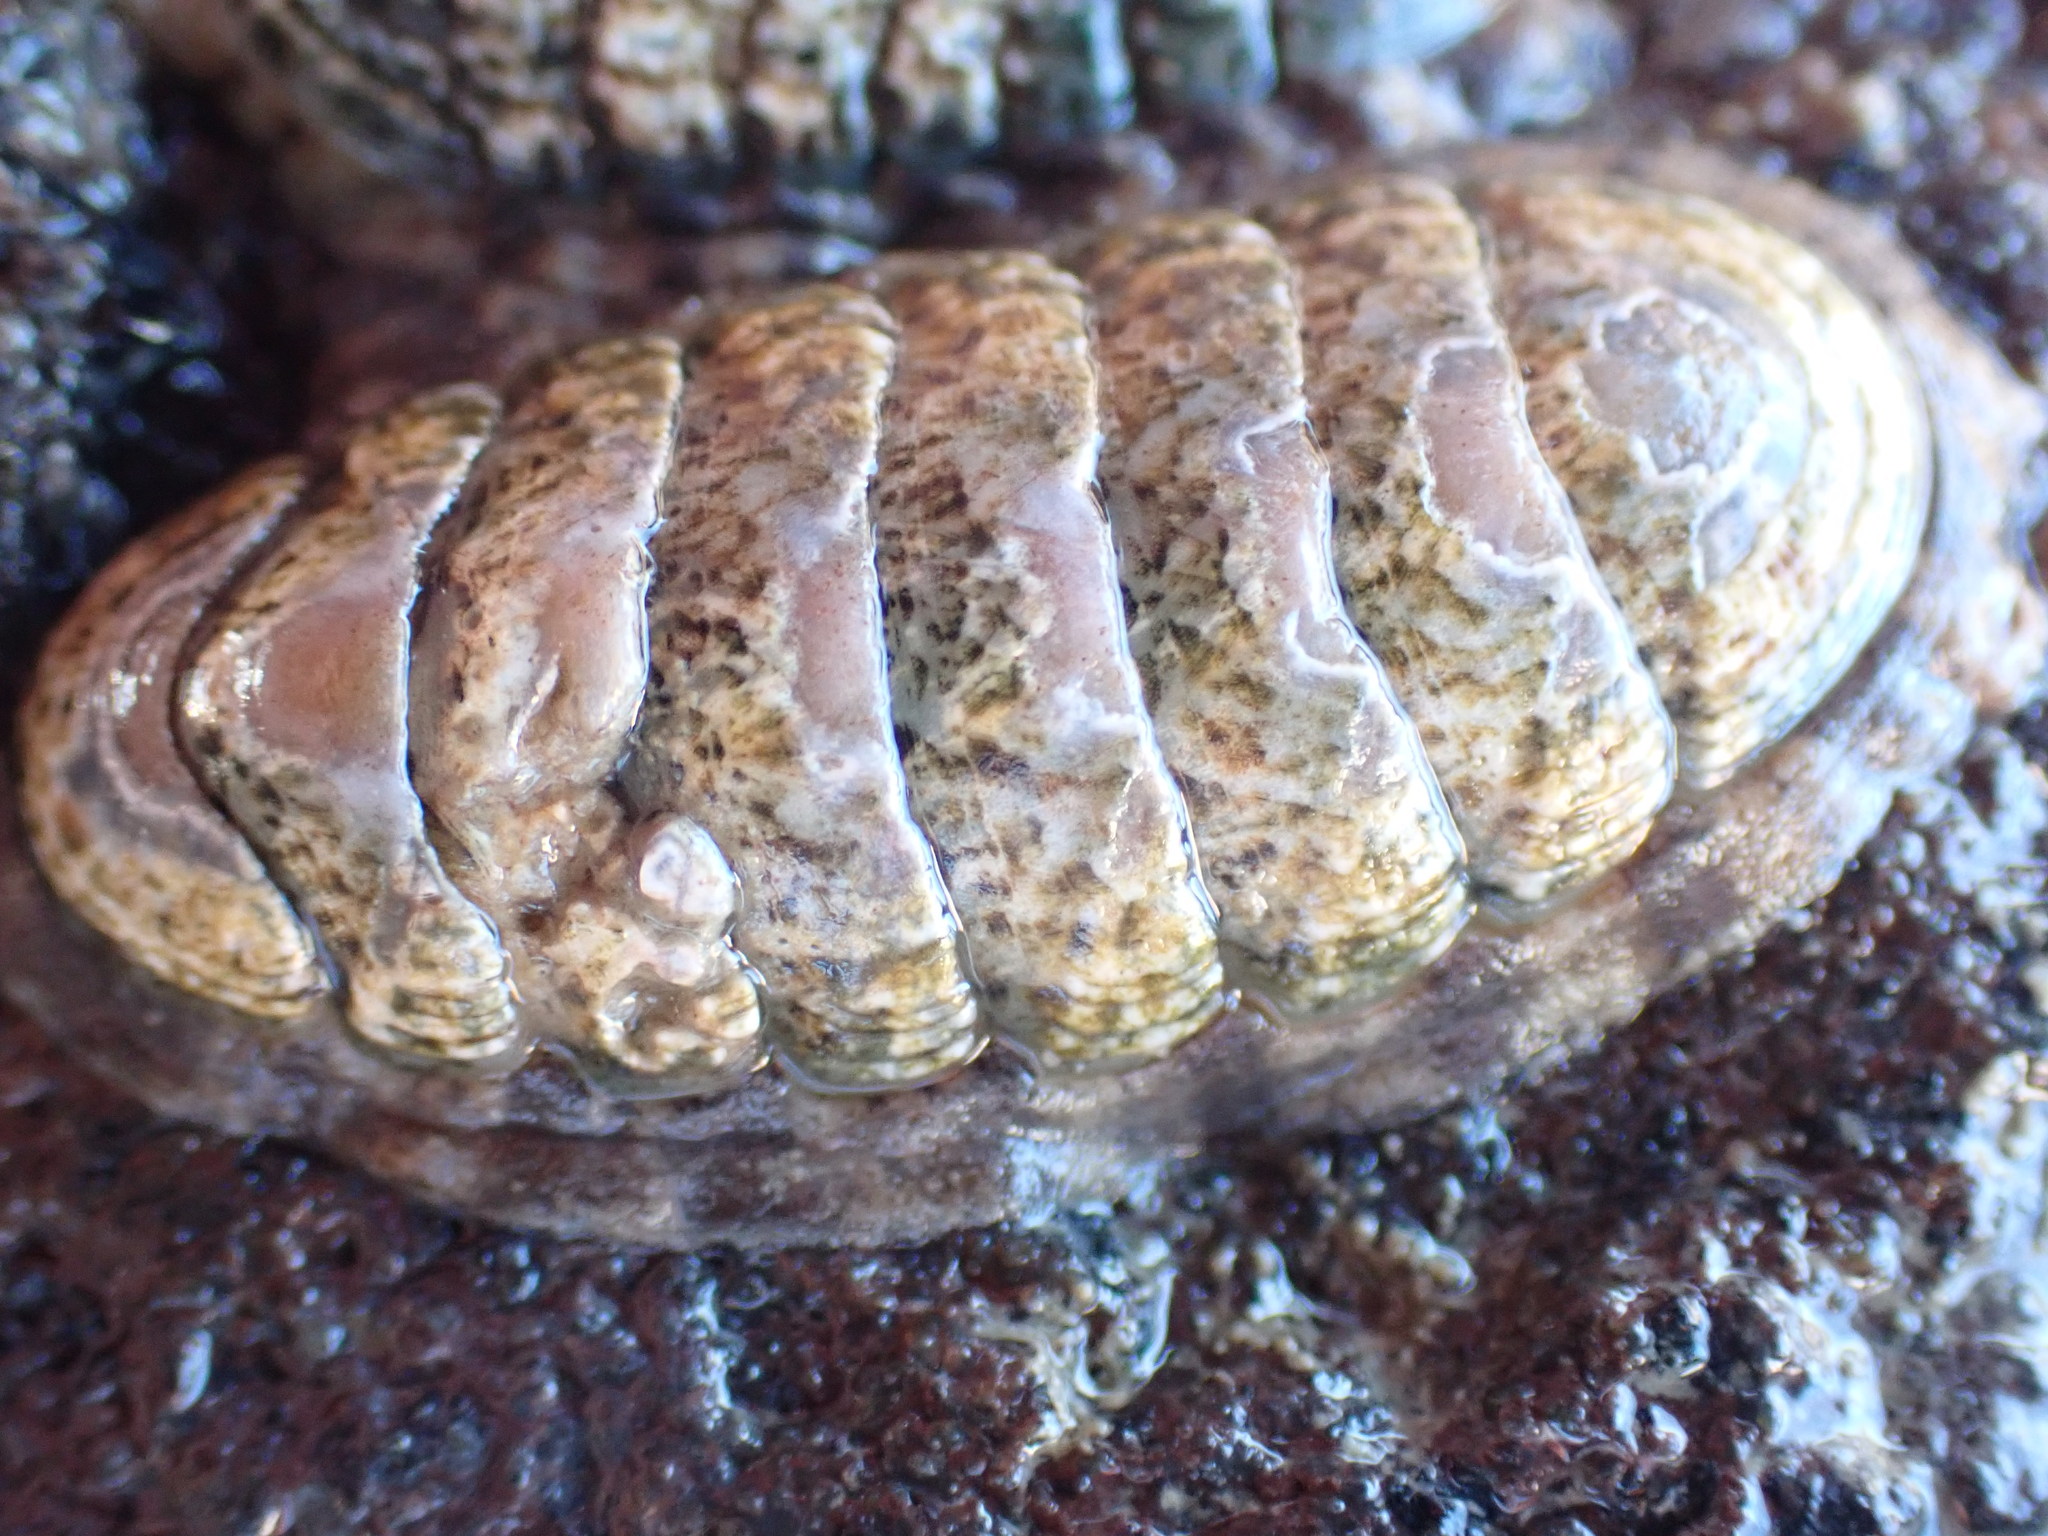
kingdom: Animalia
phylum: Mollusca
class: Polyplacophora
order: Chitonida
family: Ischnochitonidae
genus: Ischnochiton
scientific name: Ischnochiton maorianus
